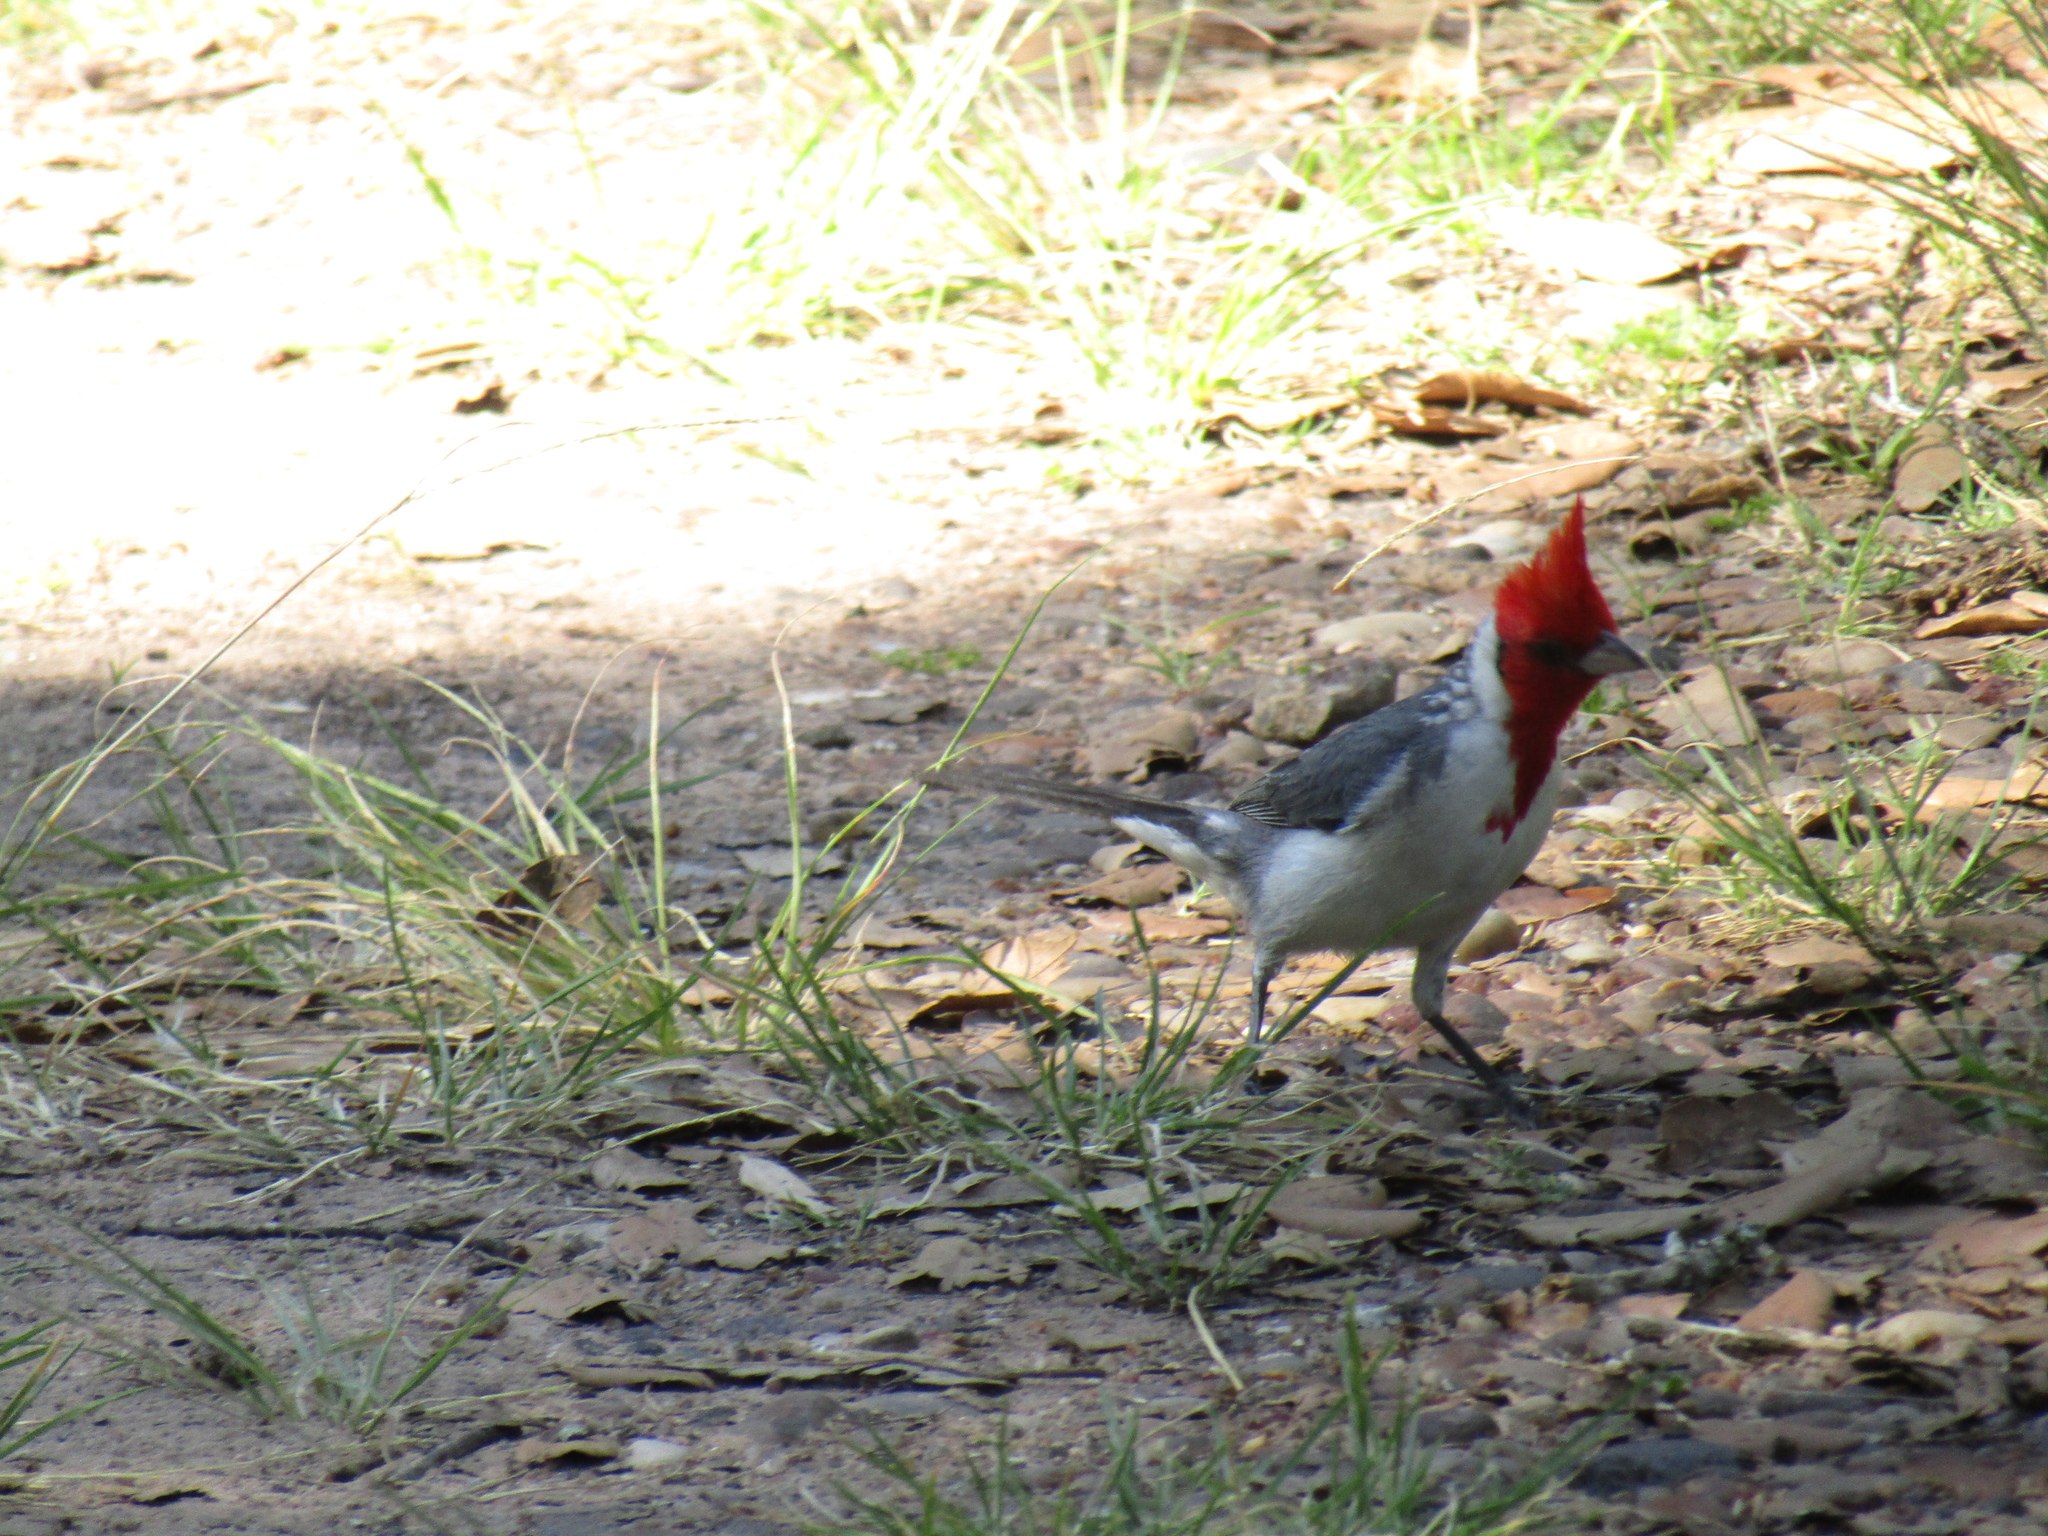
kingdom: Animalia
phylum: Chordata
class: Aves
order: Passeriformes
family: Thraupidae
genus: Paroaria
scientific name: Paroaria coronata
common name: Red-crested cardinal
